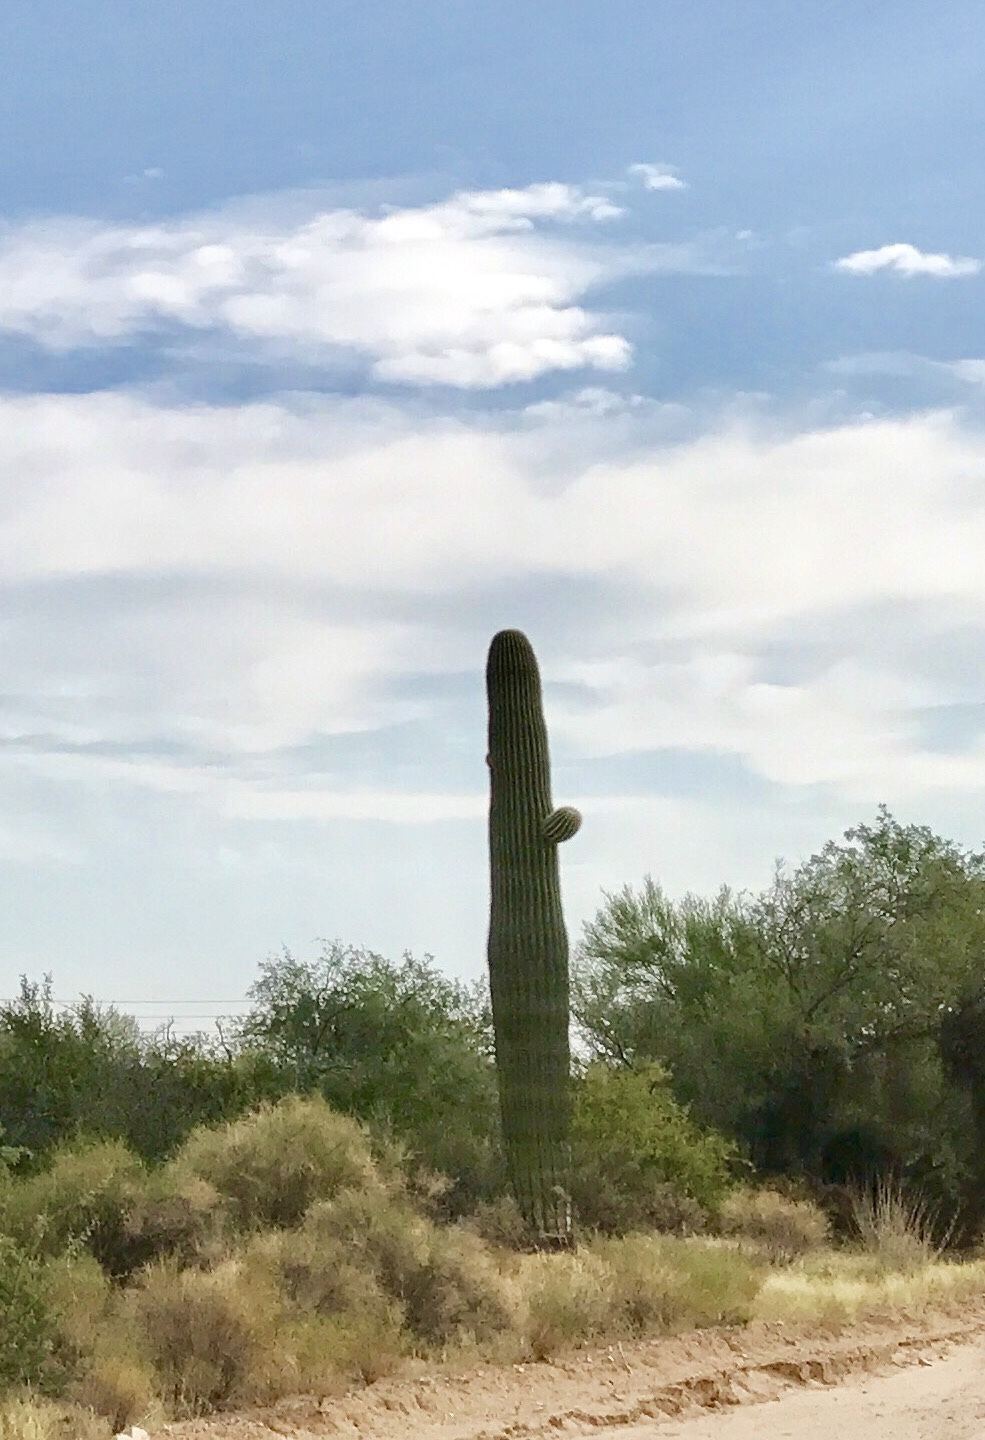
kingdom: Plantae
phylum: Tracheophyta
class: Magnoliopsida
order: Caryophyllales
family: Cactaceae
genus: Carnegiea
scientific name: Carnegiea gigantea
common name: Saguaro
